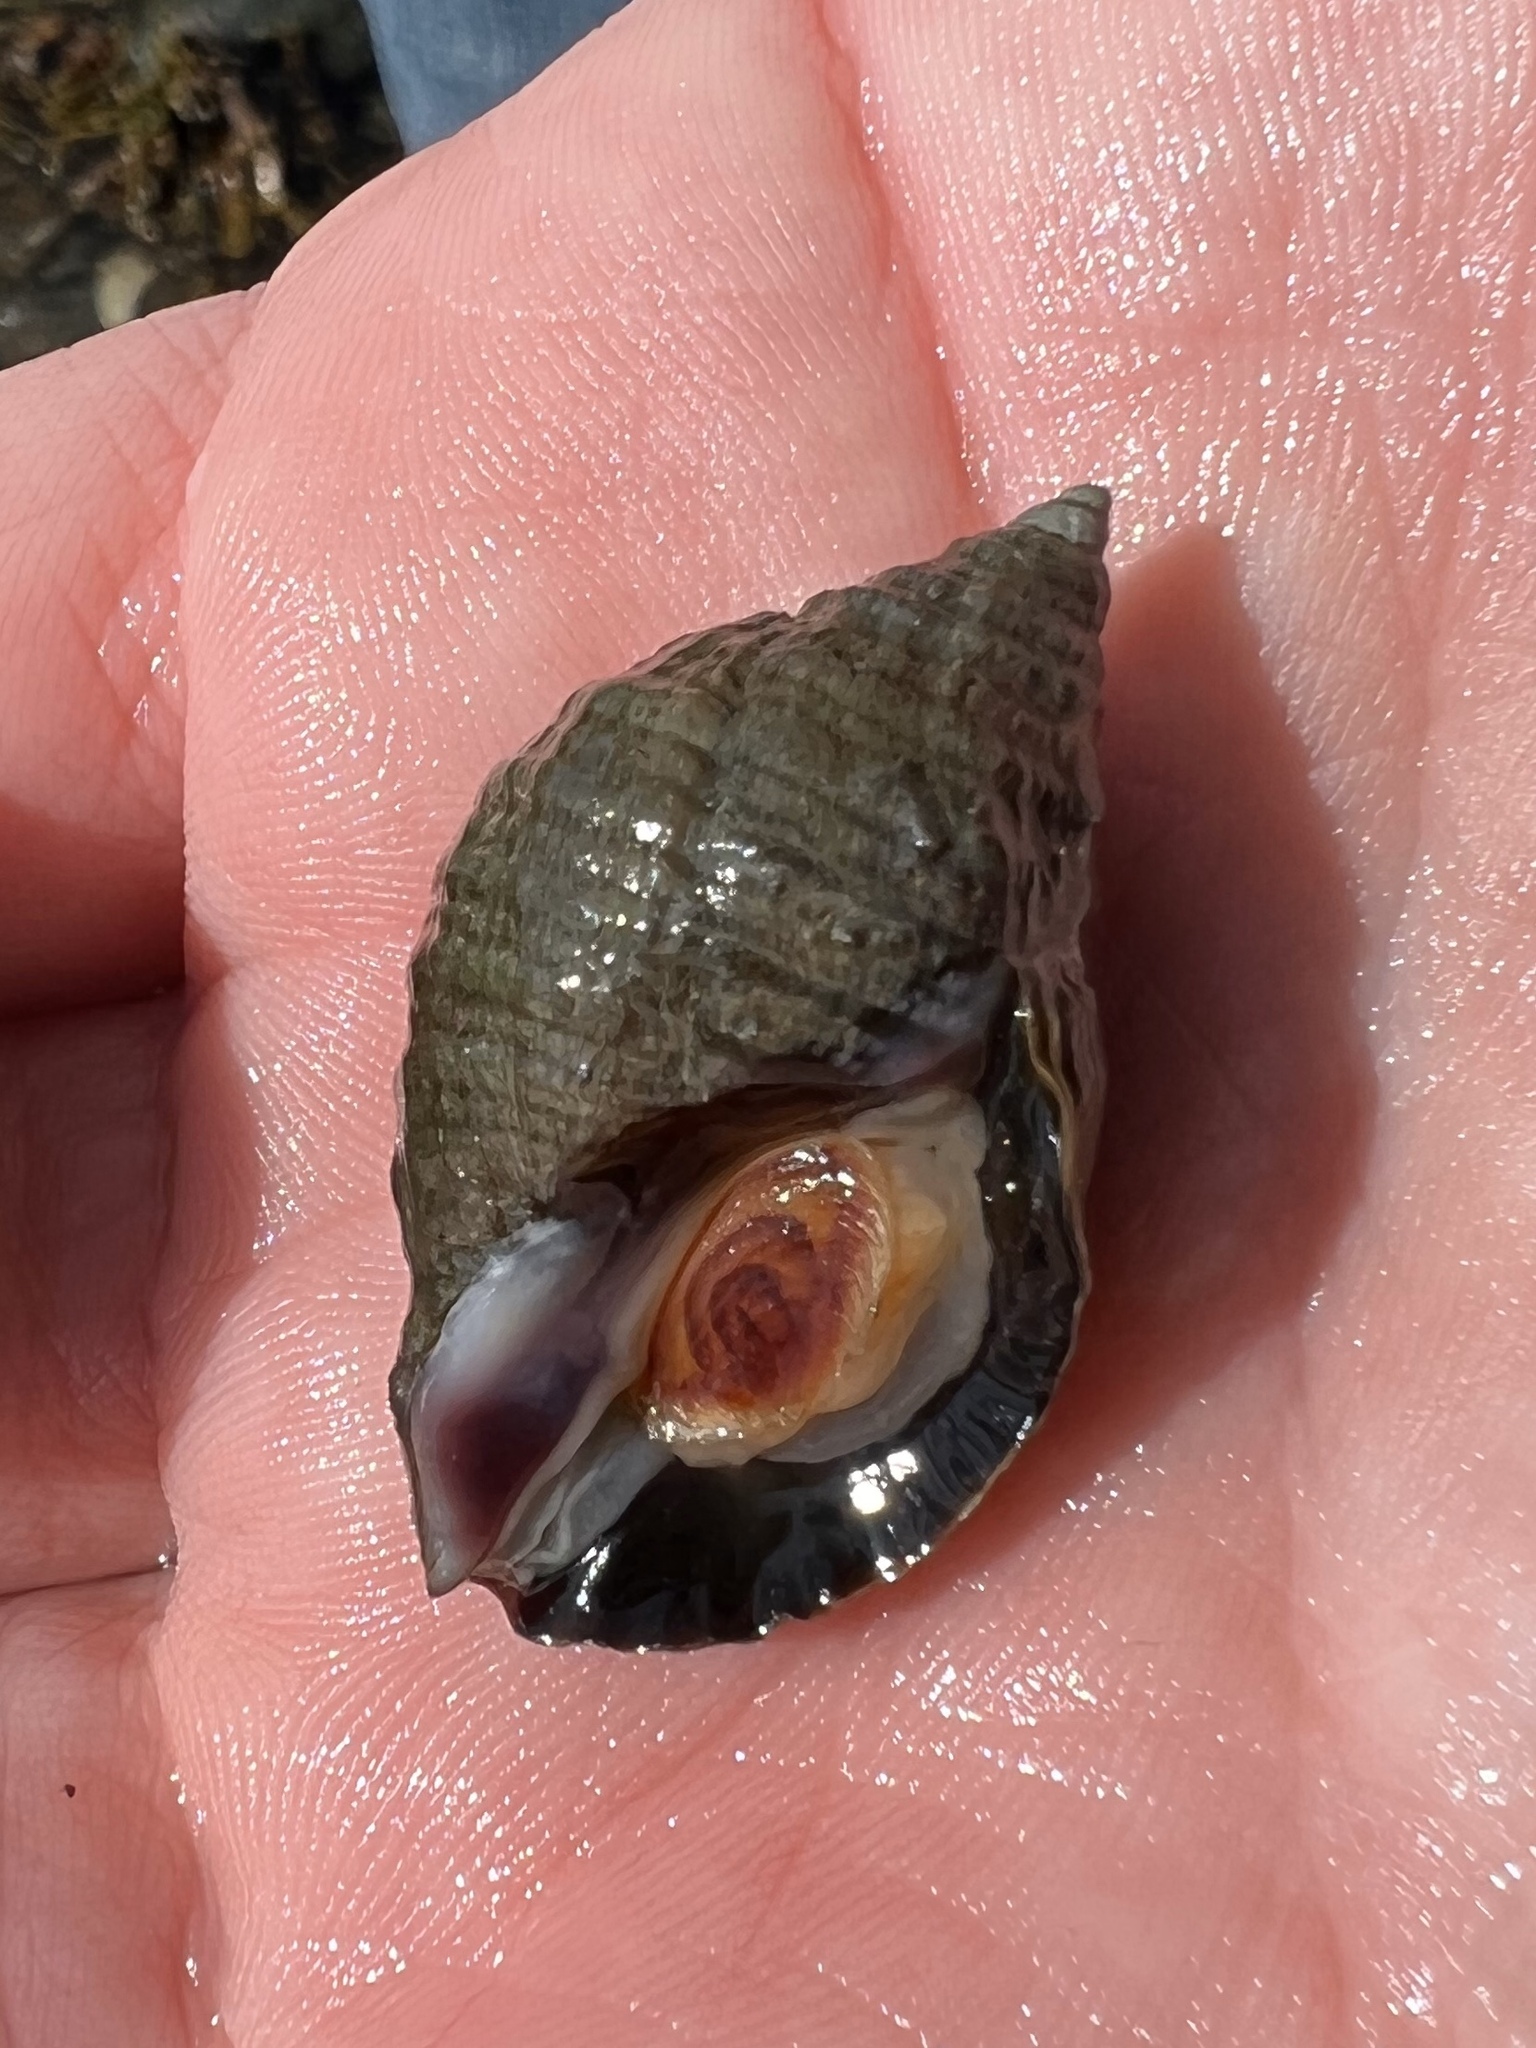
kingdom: Animalia
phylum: Mollusca
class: Gastropoda
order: Neogastropoda
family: Muricidae
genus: Nucella
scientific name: Nucella lapillus
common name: Dog whelk
